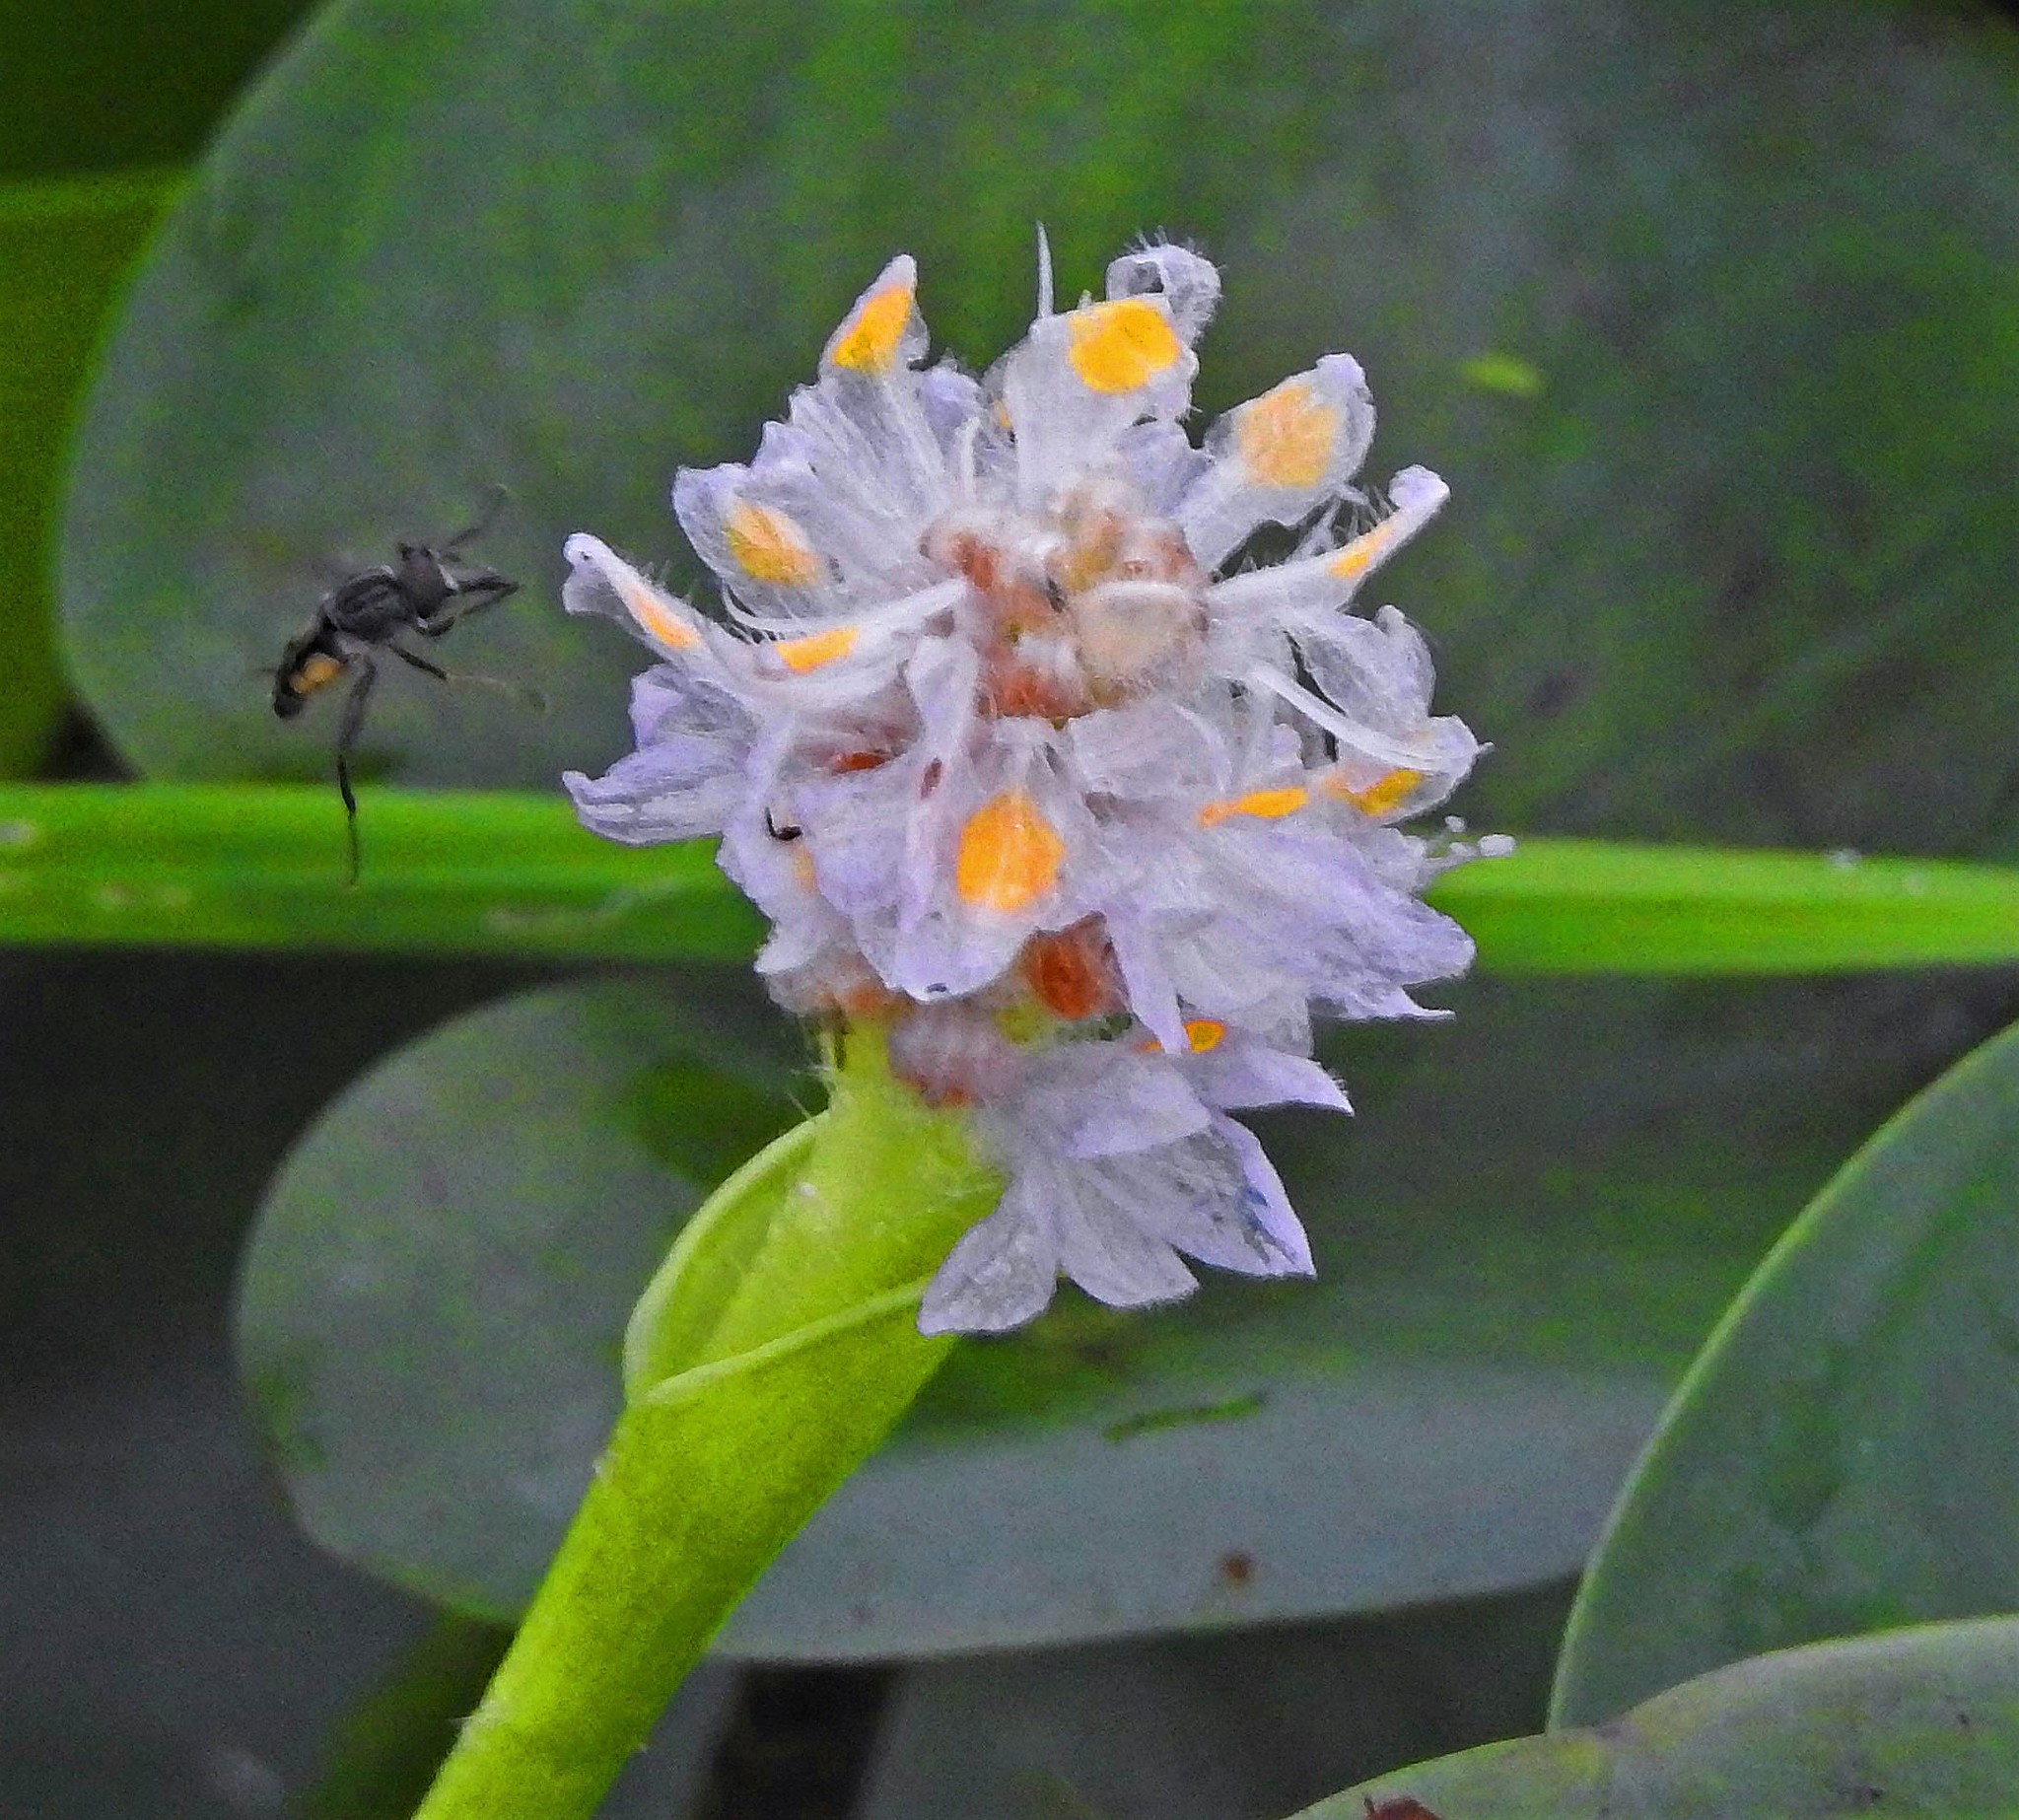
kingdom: Plantae
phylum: Tracheophyta
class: Liliopsida
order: Commelinales
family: Pontederiaceae
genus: Pontederia
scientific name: Pontederia rotundifolia
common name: Tropical pickerel-weed
